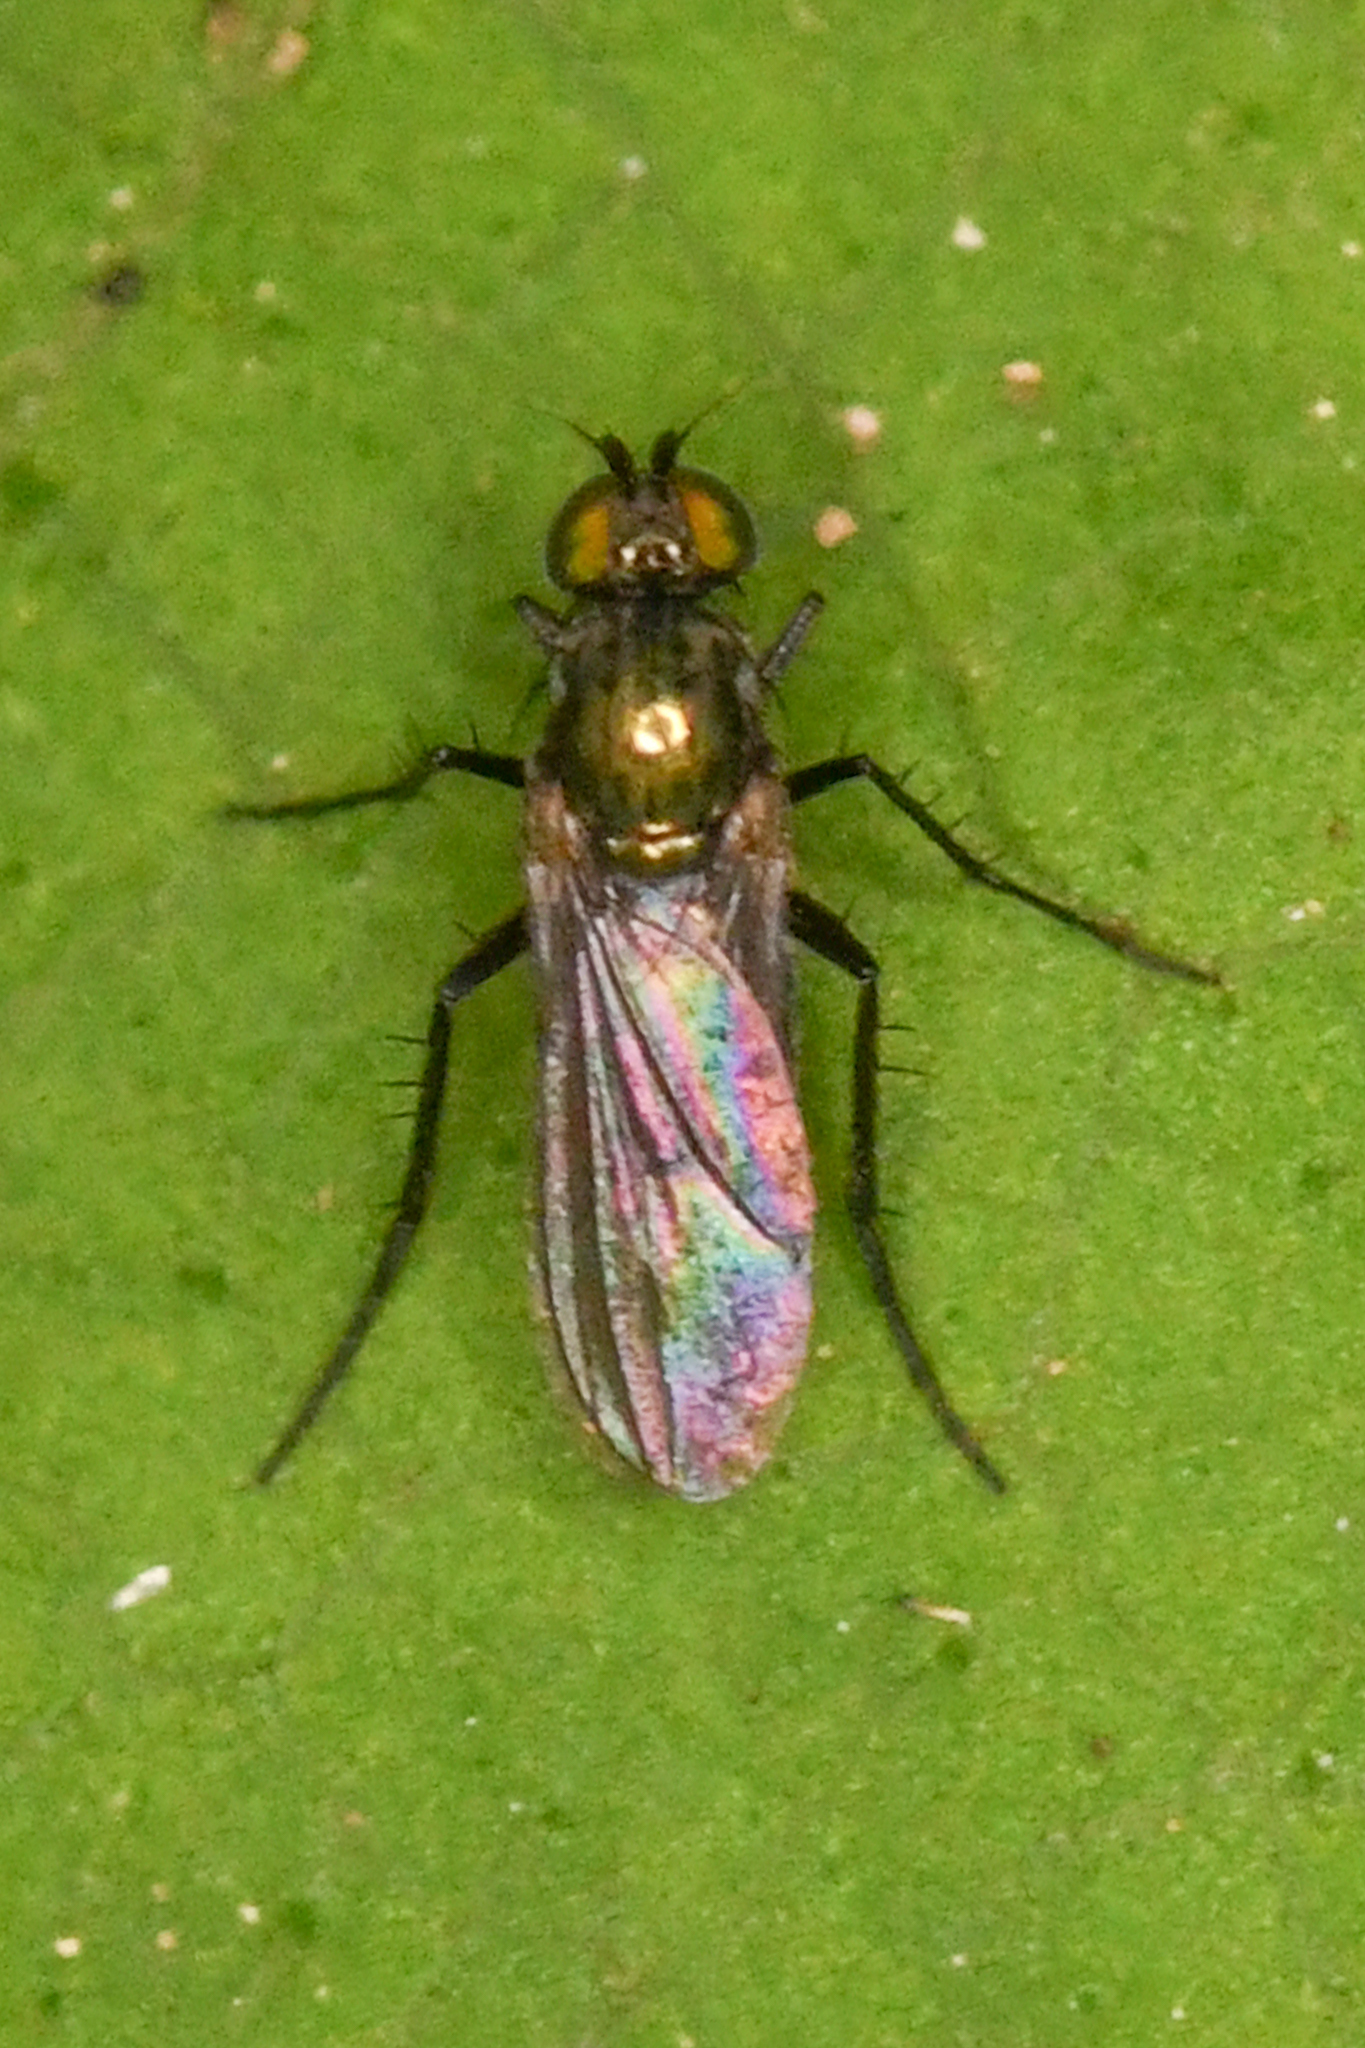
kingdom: Animalia
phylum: Arthropoda
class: Insecta
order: Diptera
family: Dolichopodidae
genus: Hercostomus
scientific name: Hercostomus unicolor
